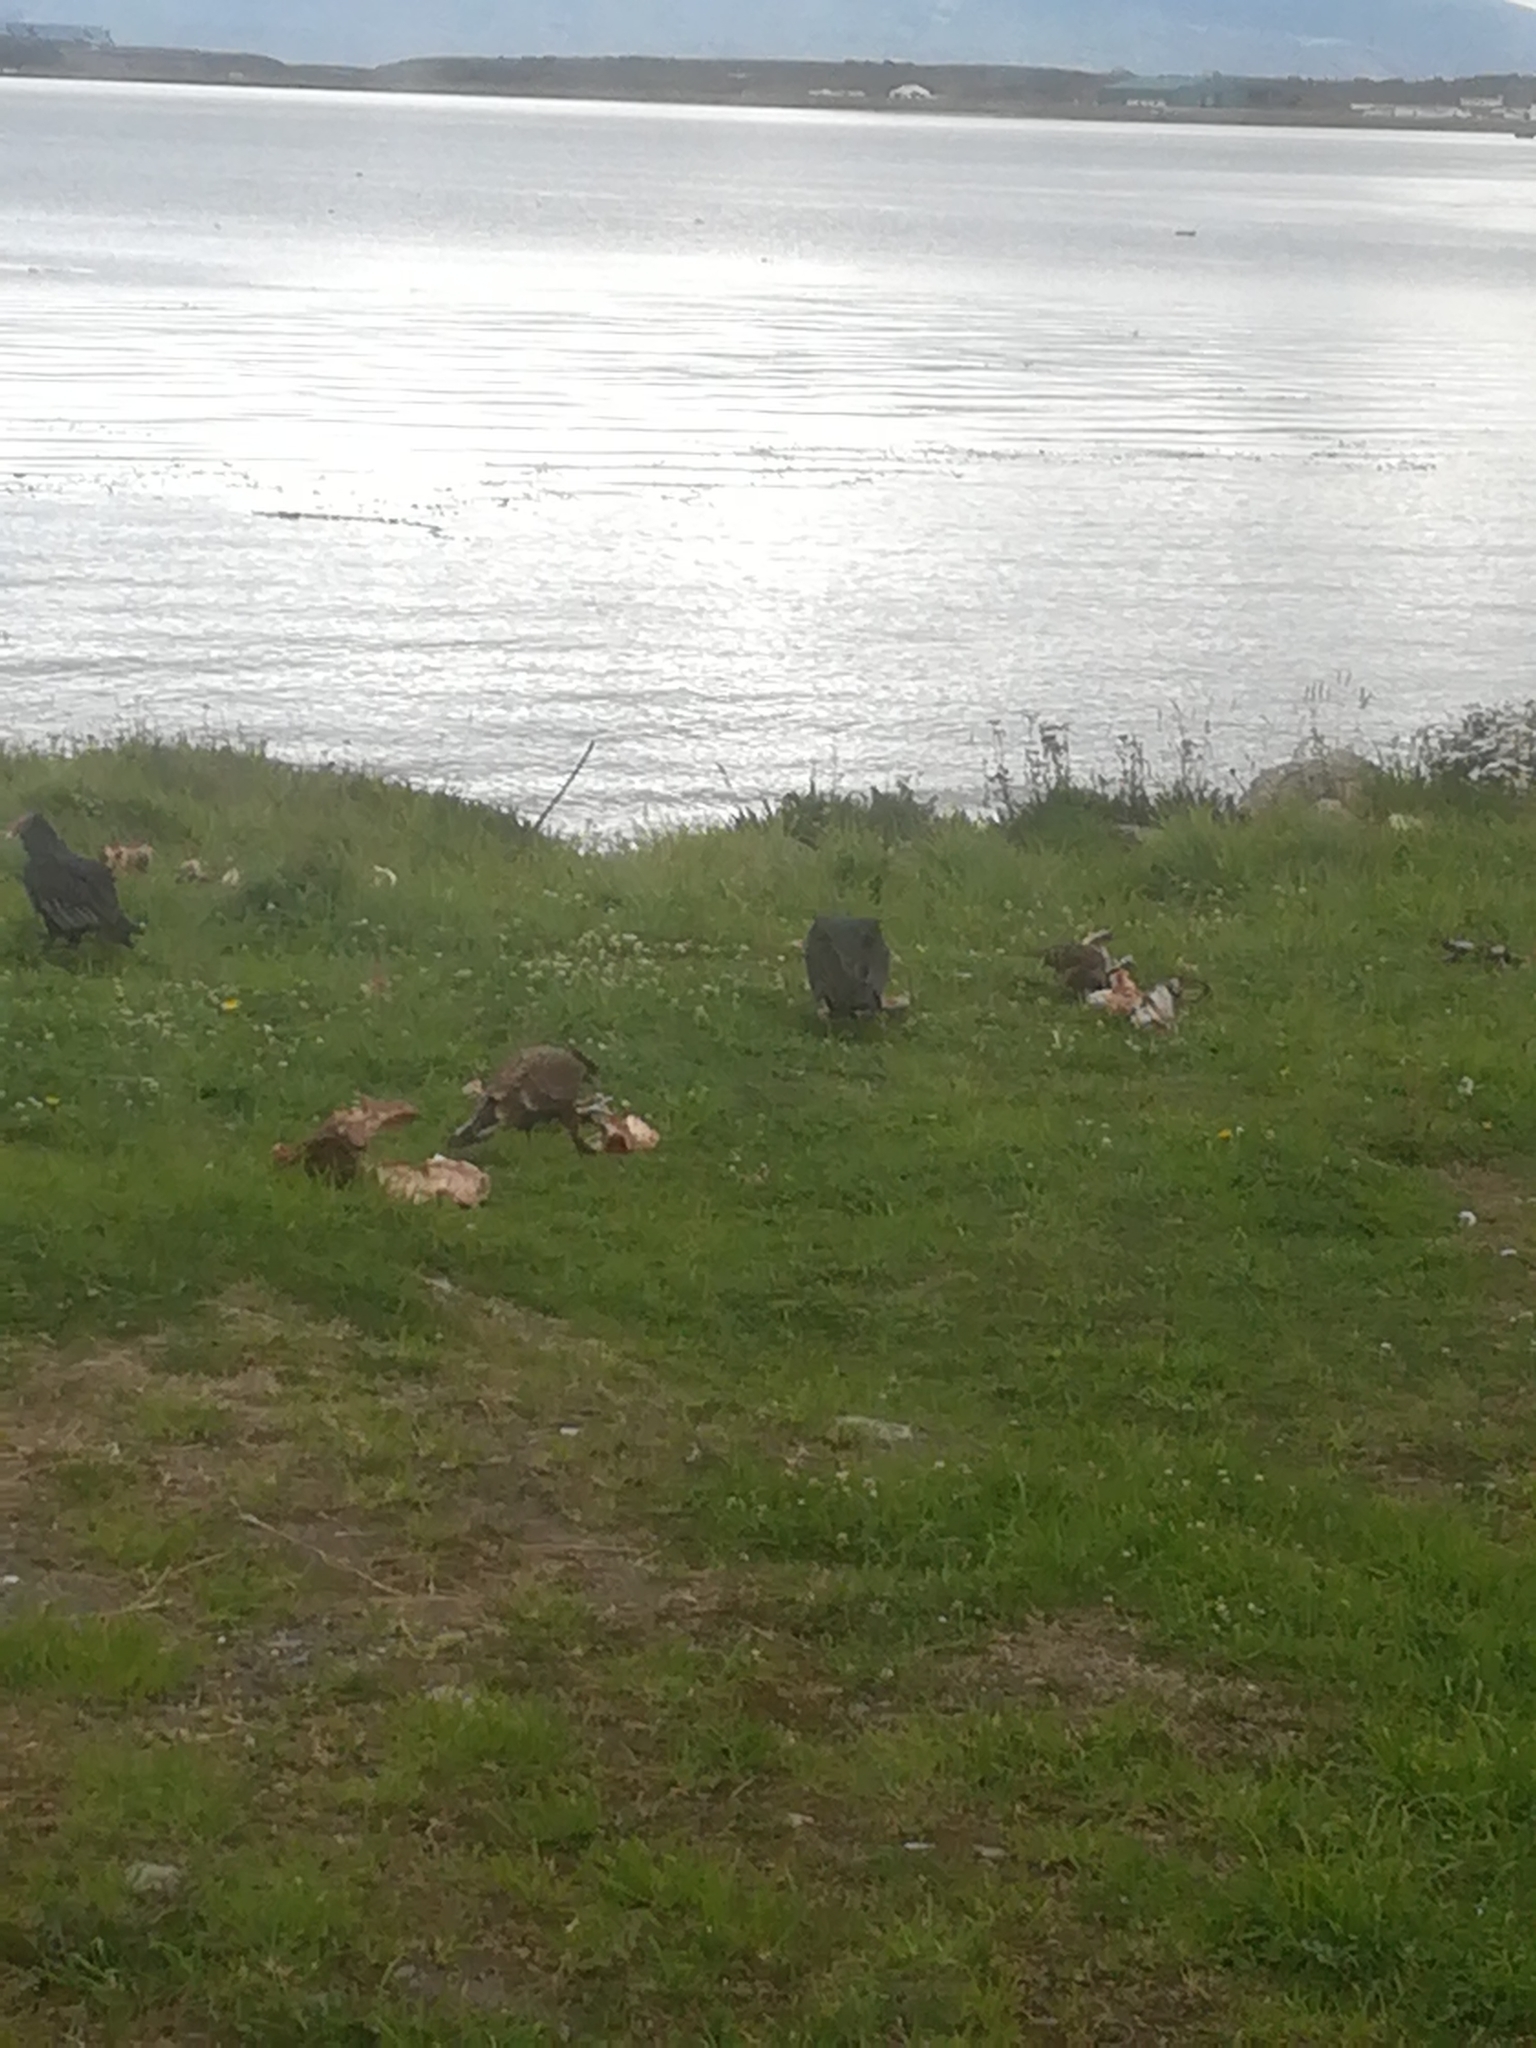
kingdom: Animalia
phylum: Chordata
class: Aves
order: Accipitriformes
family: Cathartidae
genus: Cathartes
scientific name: Cathartes aura
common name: Turkey vulture
